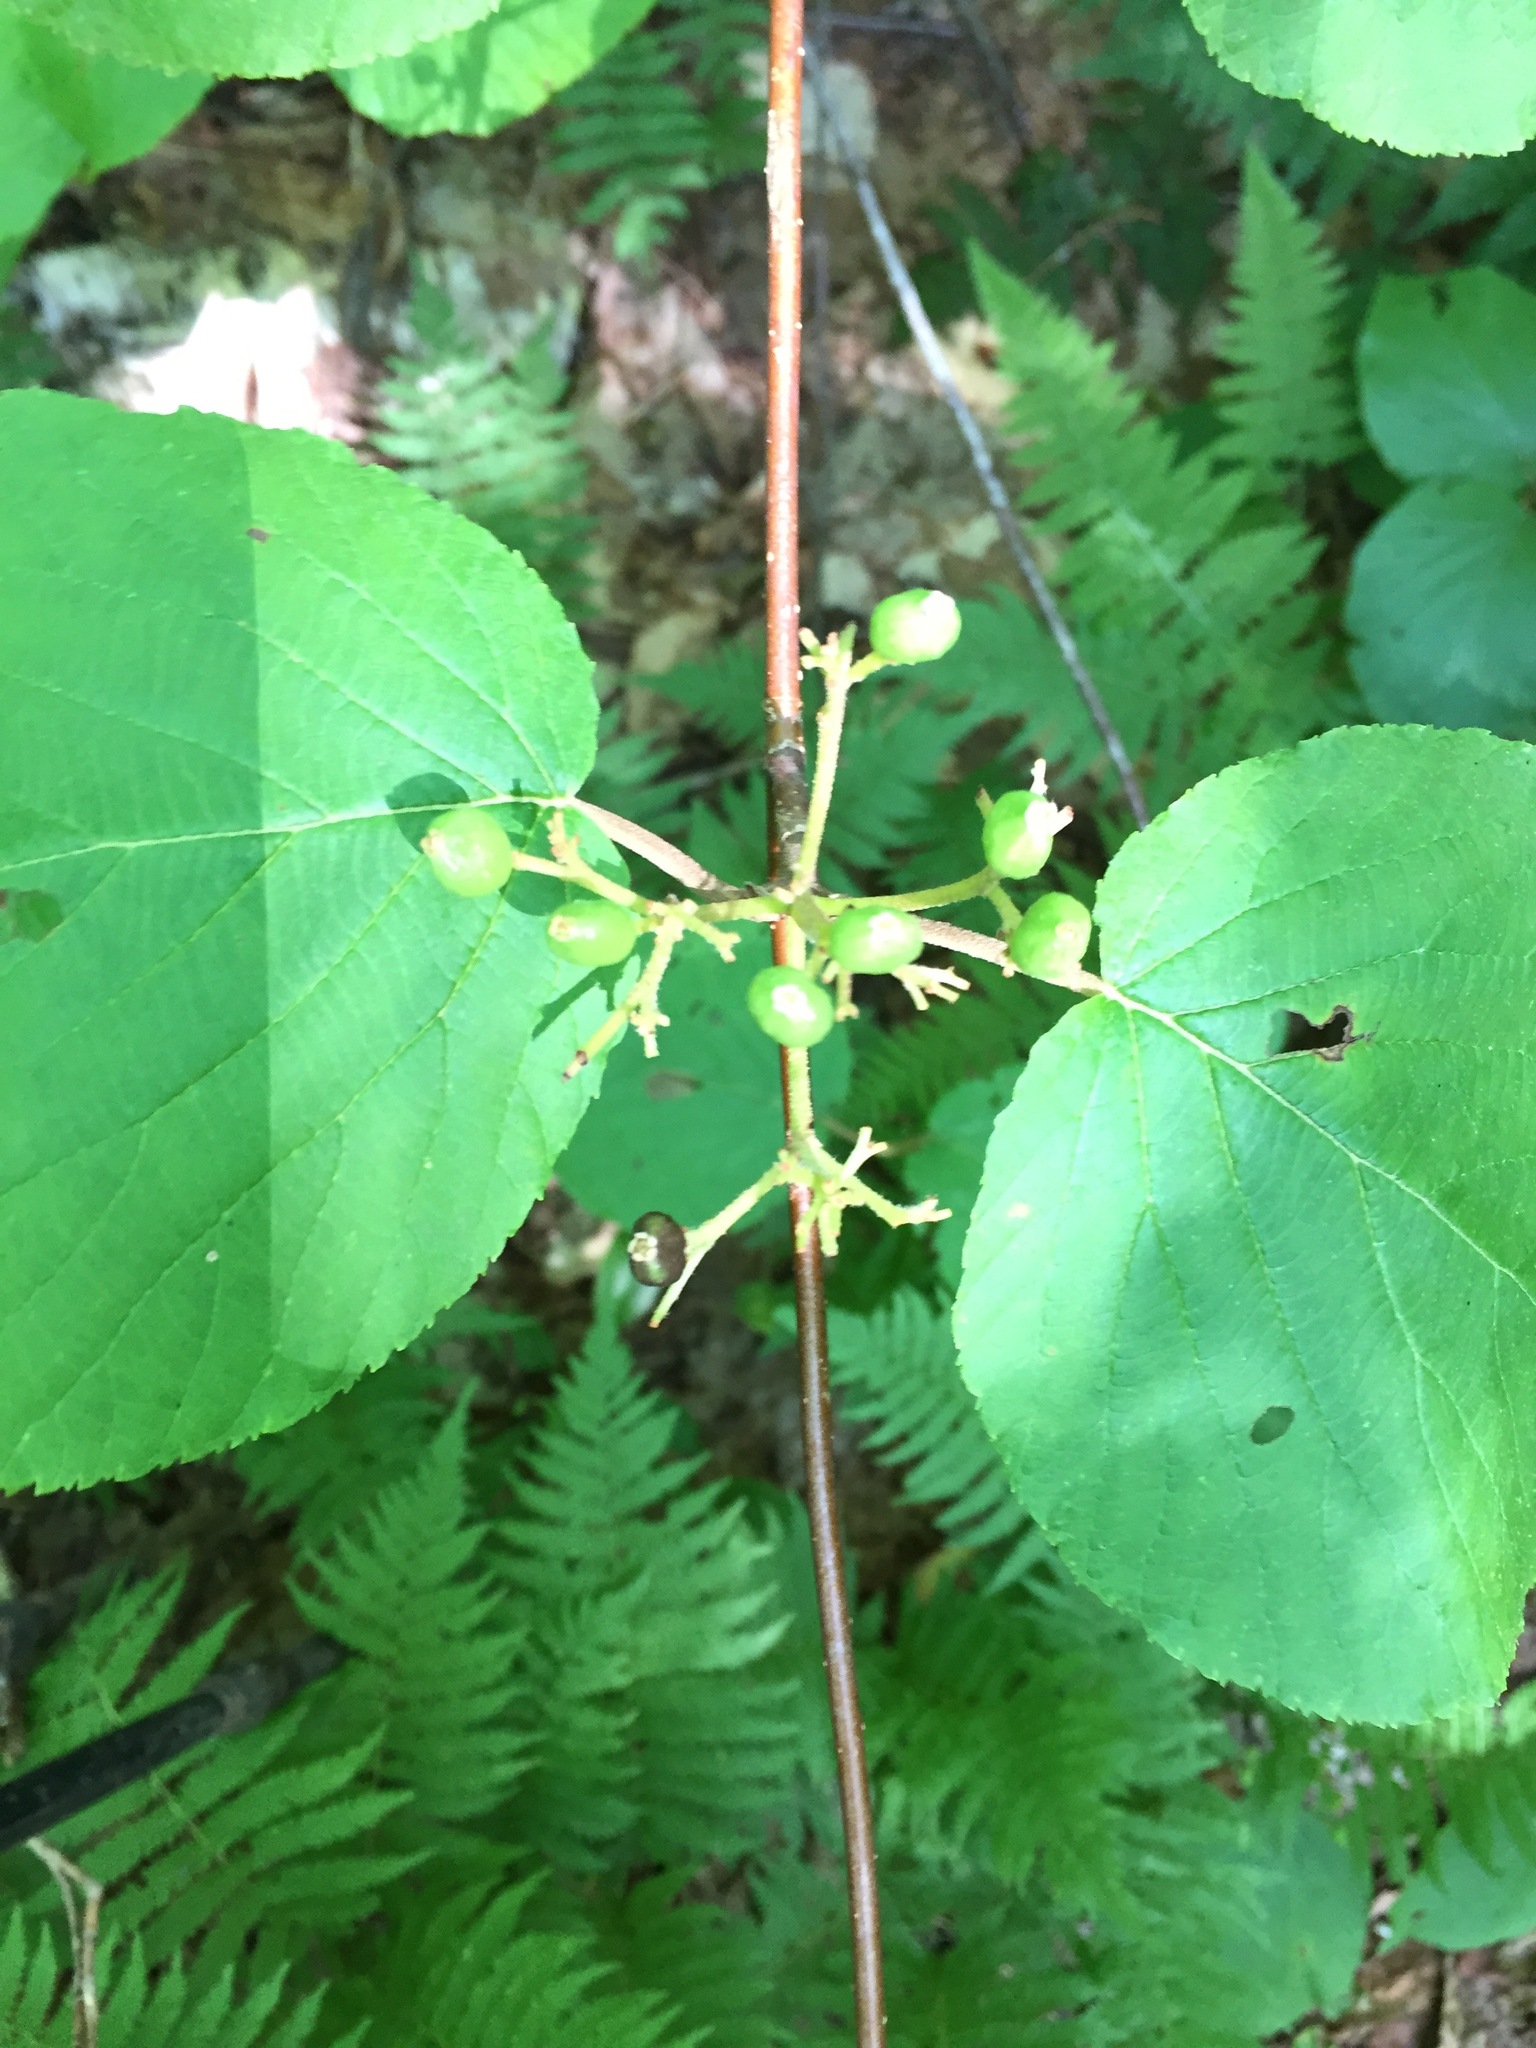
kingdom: Plantae
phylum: Tracheophyta
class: Magnoliopsida
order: Dipsacales
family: Viburnaceae
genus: Viburnum
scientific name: Viburnum lantanoides
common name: Hobblebush
